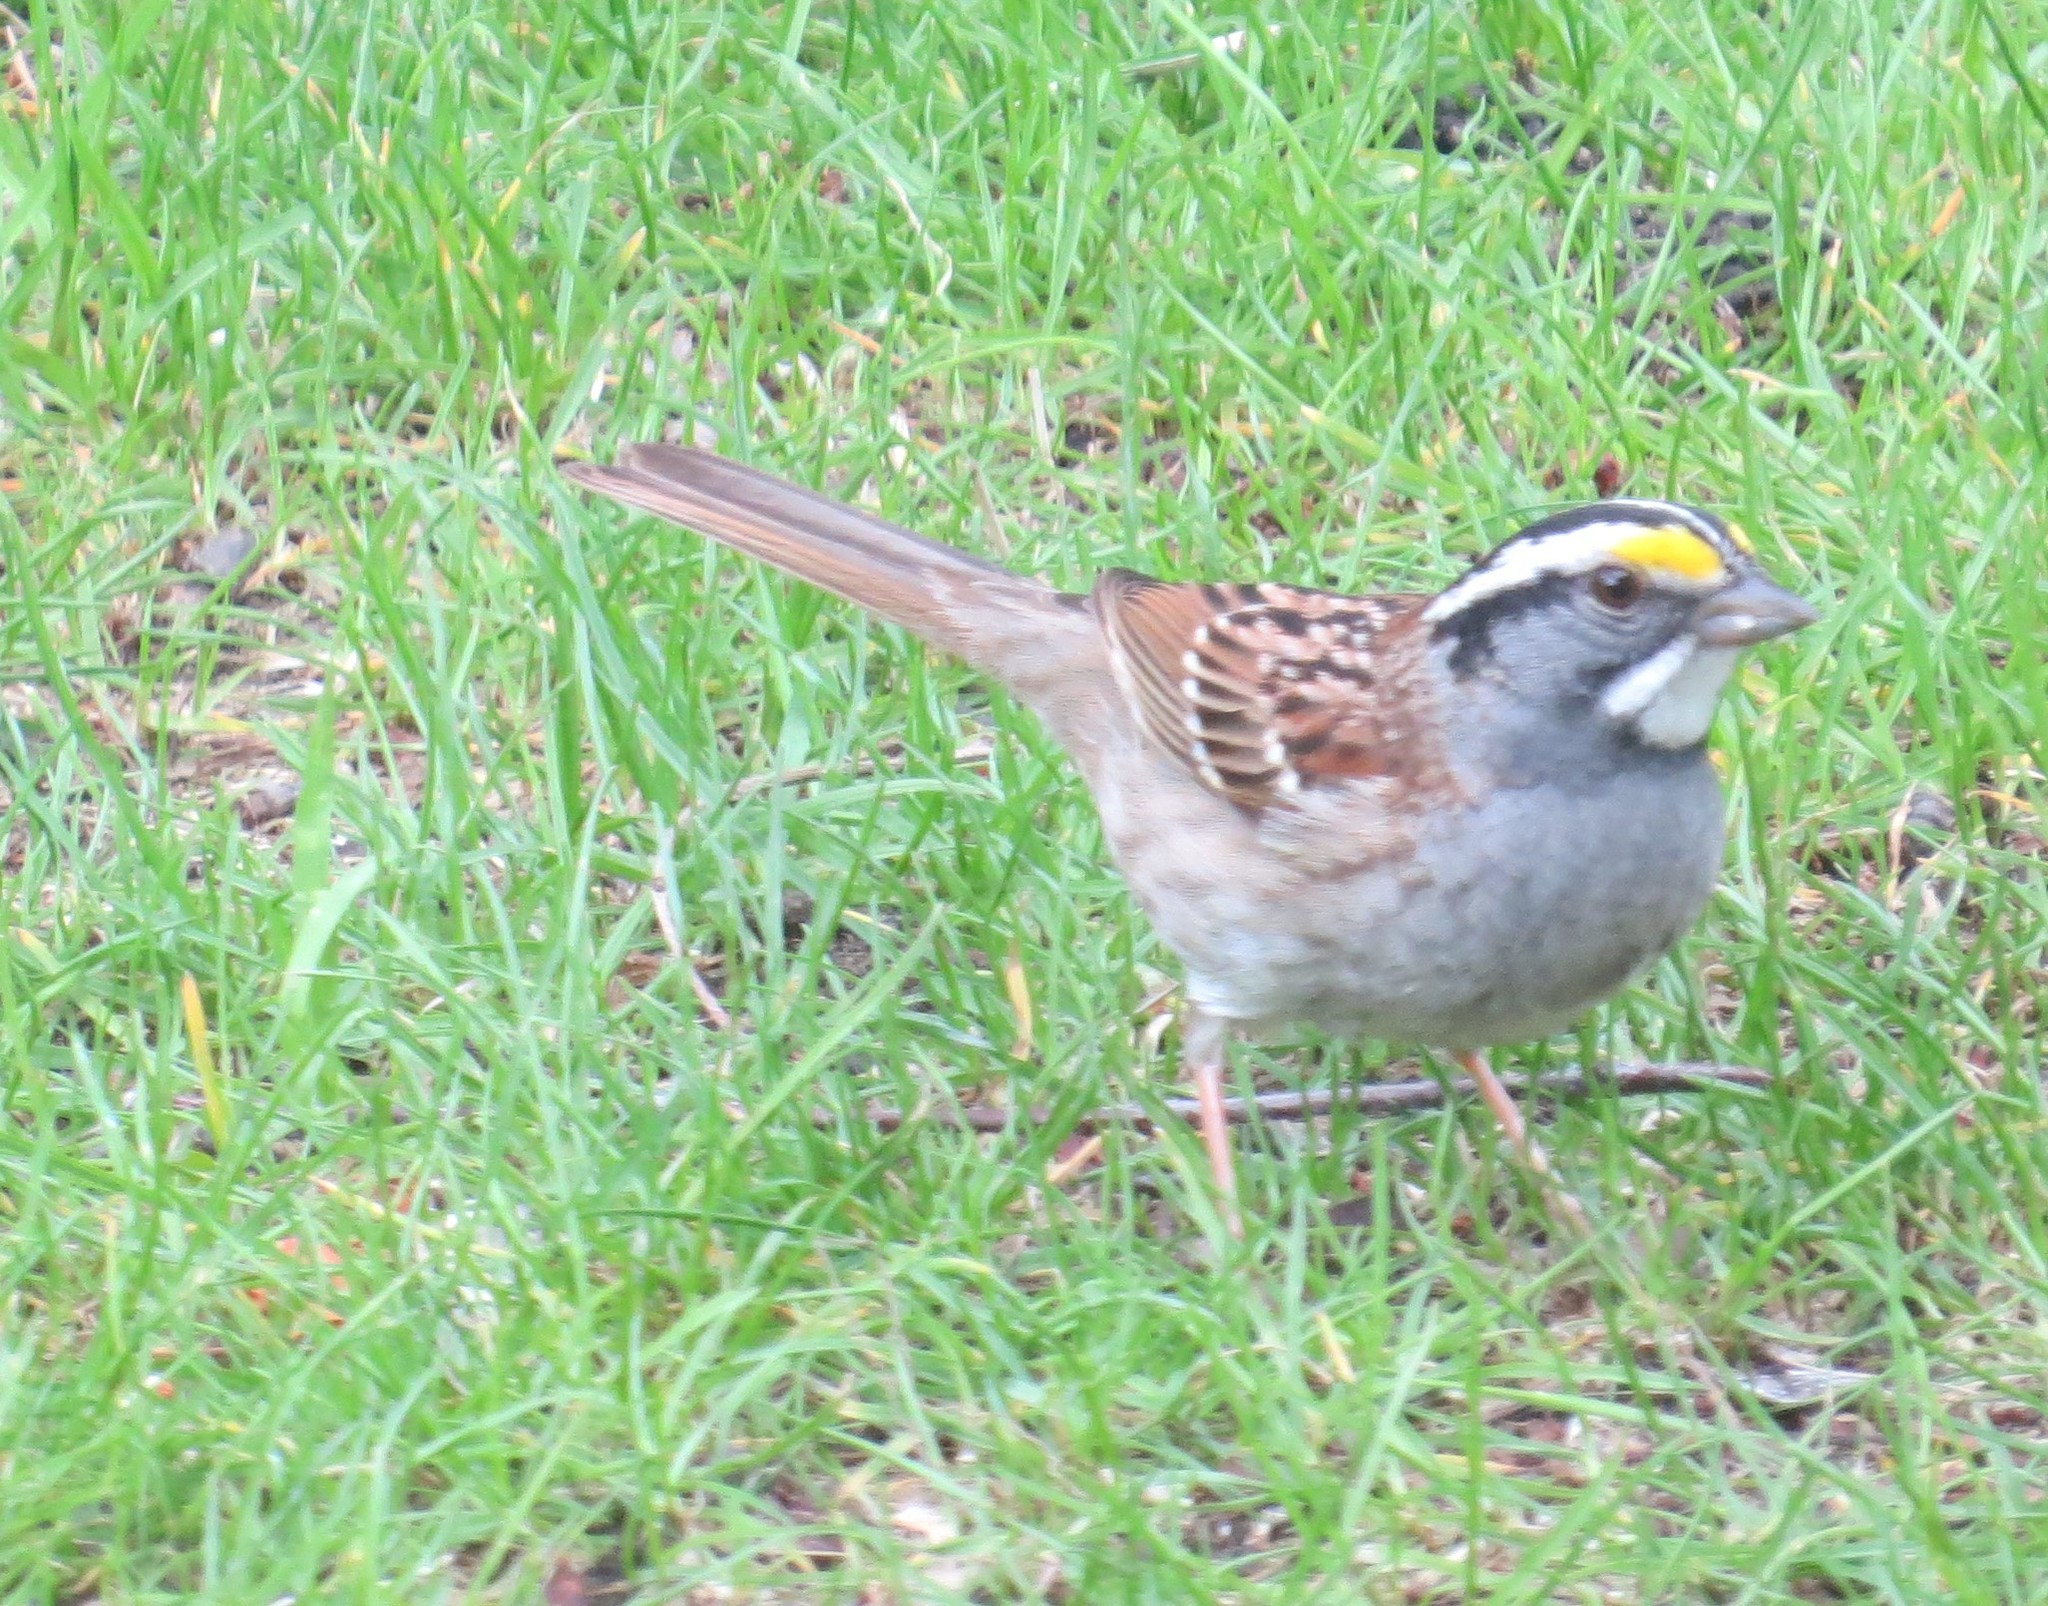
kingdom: Animalia
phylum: Chordata
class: Aves
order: Passeriformes
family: Passerellidae
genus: Zonotrichia
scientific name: Zonotrichia albicollis
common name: White-throated sparrow
